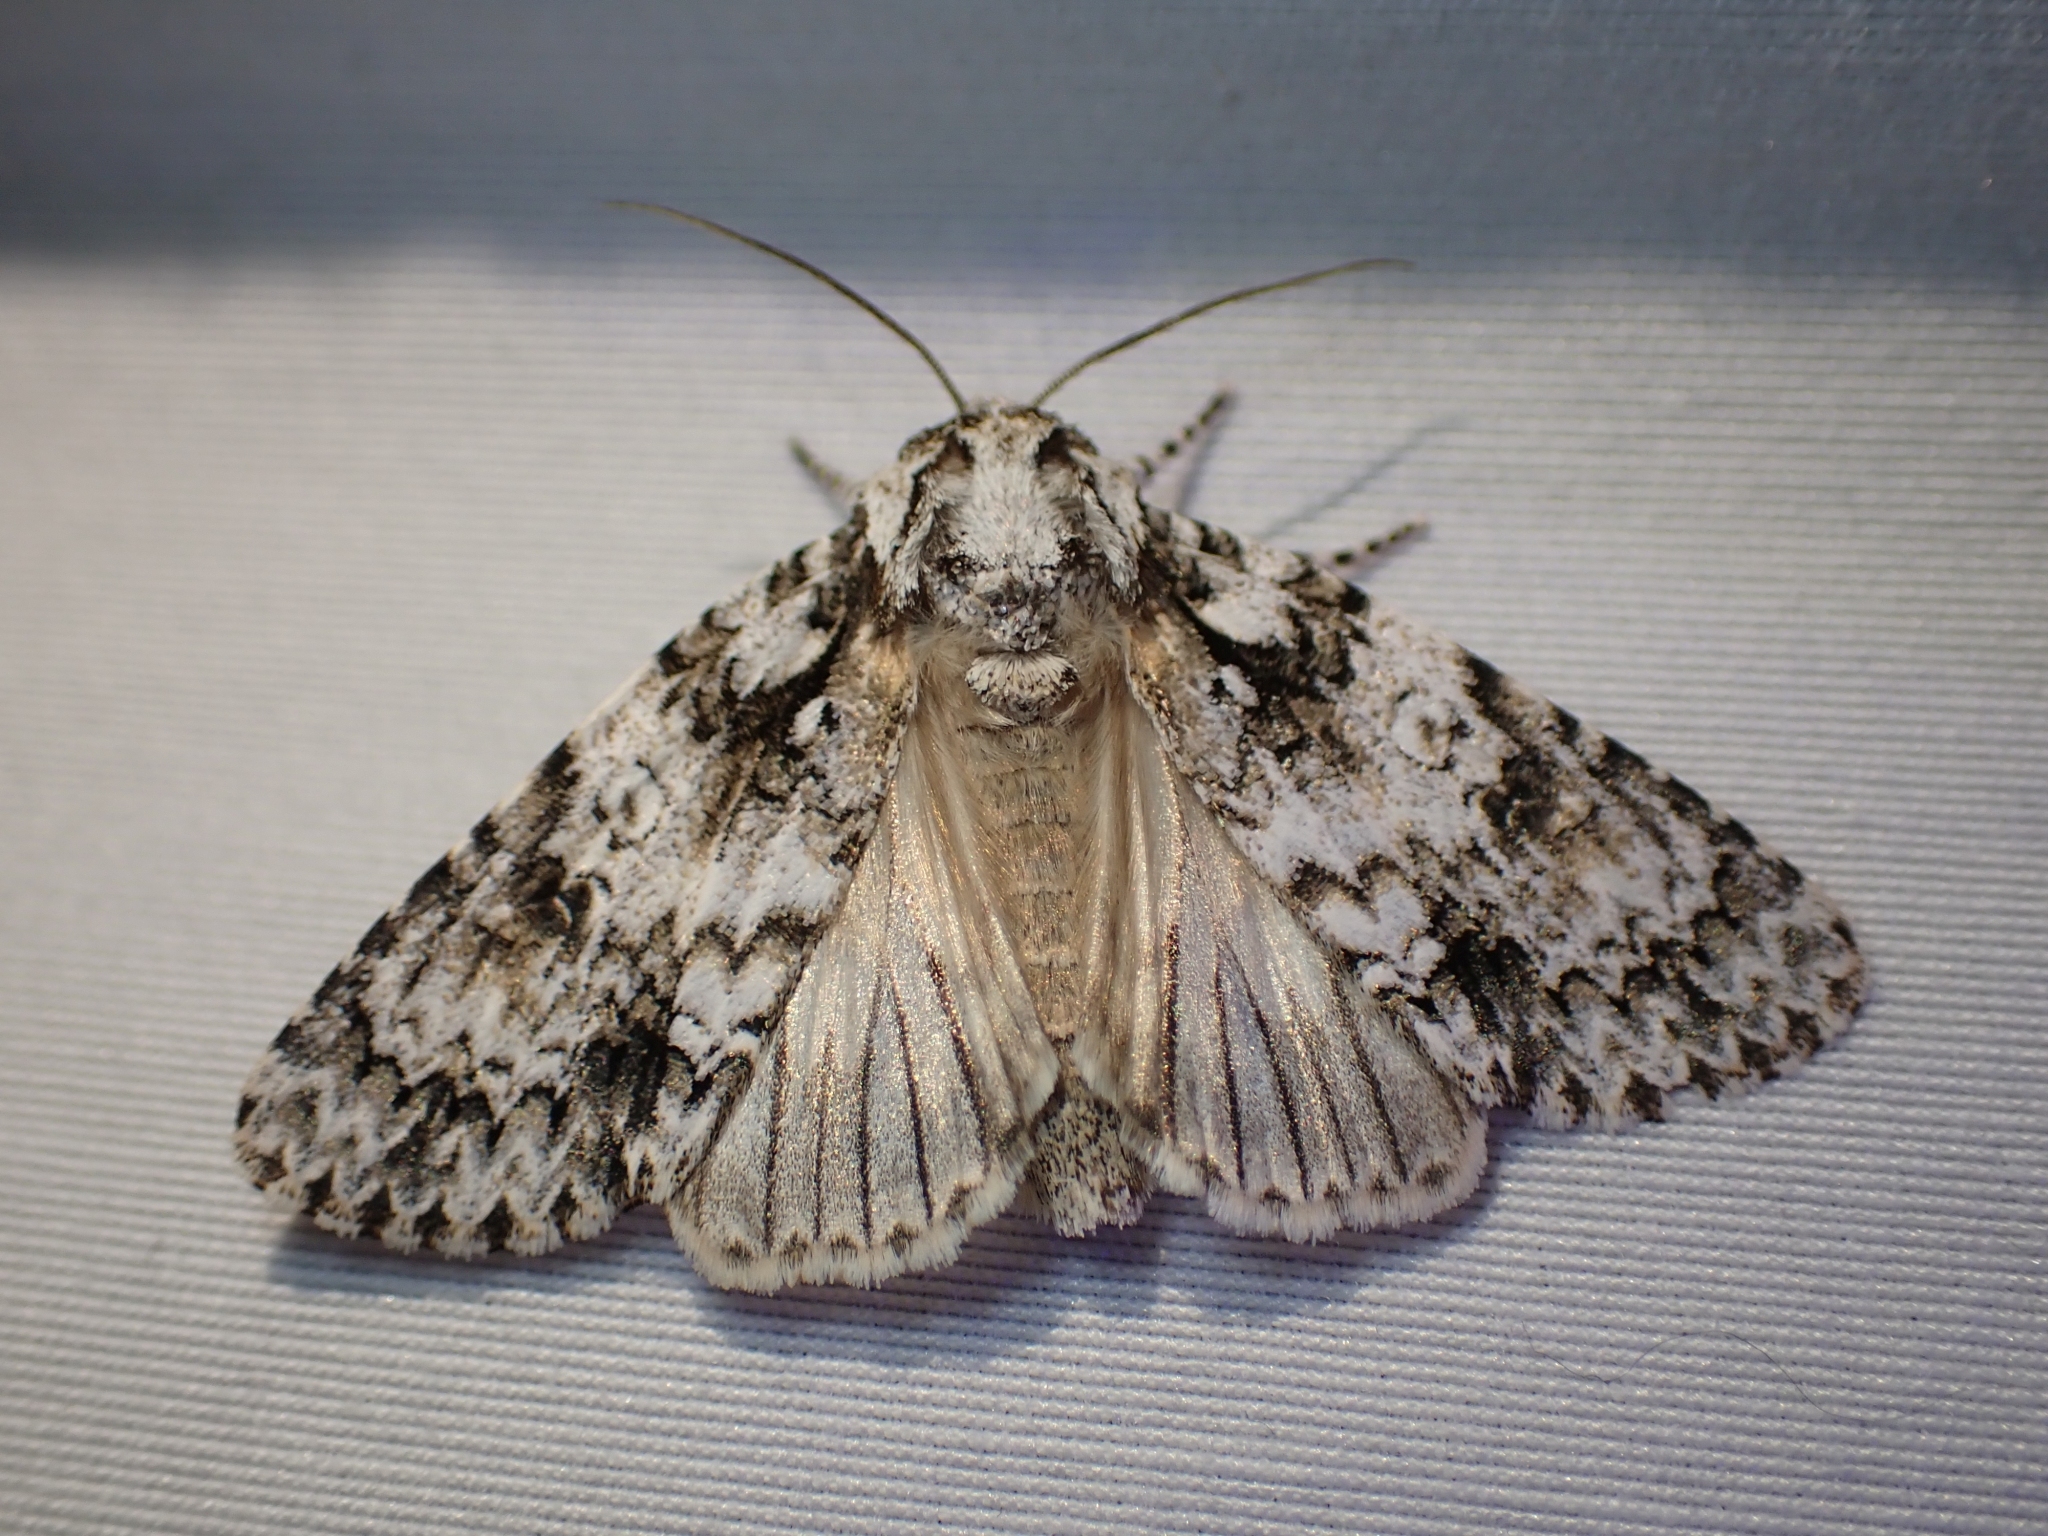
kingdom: Animalia
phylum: Arthropoda
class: Insecta
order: Lepidoptera
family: Noctuidae
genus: Acronicta
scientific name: Acronicta marmorata
